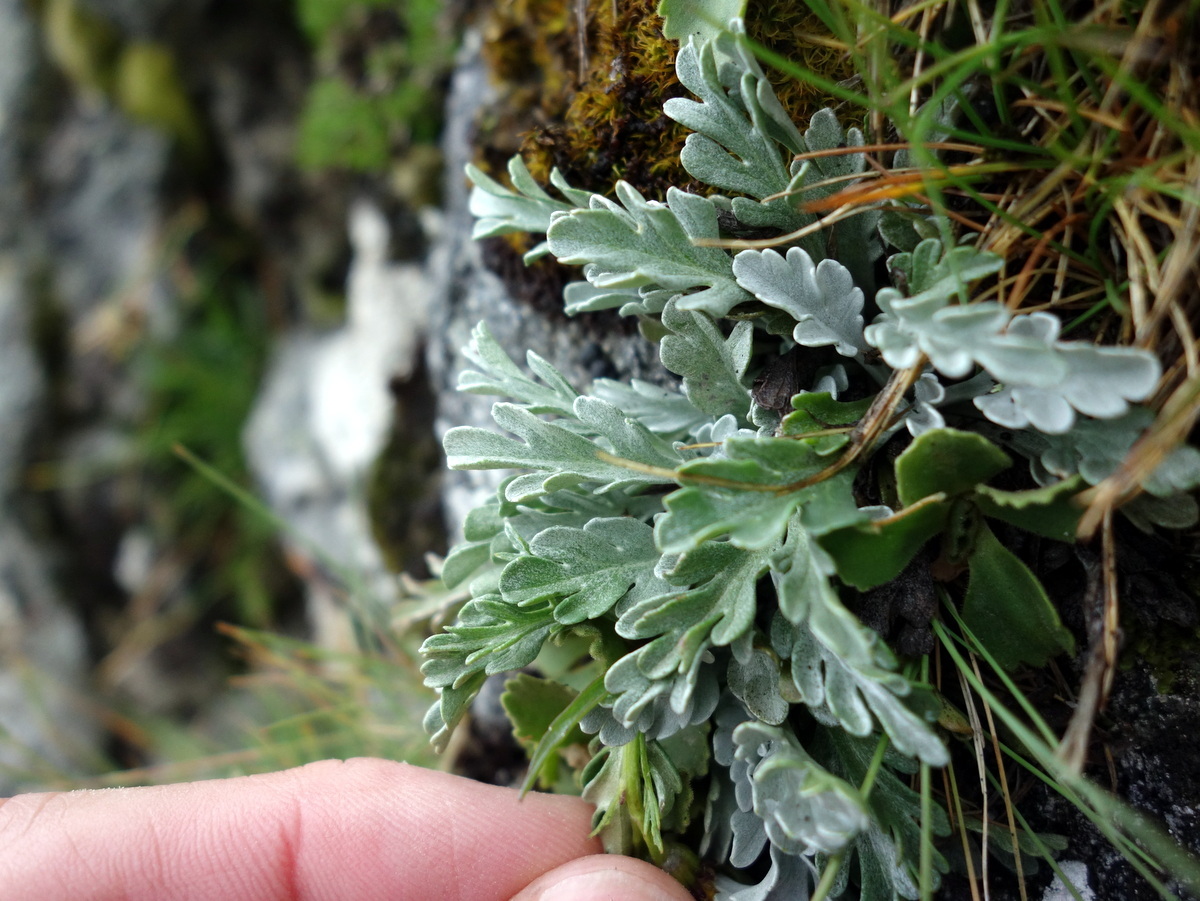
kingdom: Plantae
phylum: Tracheophyta
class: Magnoliopsida
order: Asterales
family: Asteraceae
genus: Jacobaea
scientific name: Jacobaea insubrica
